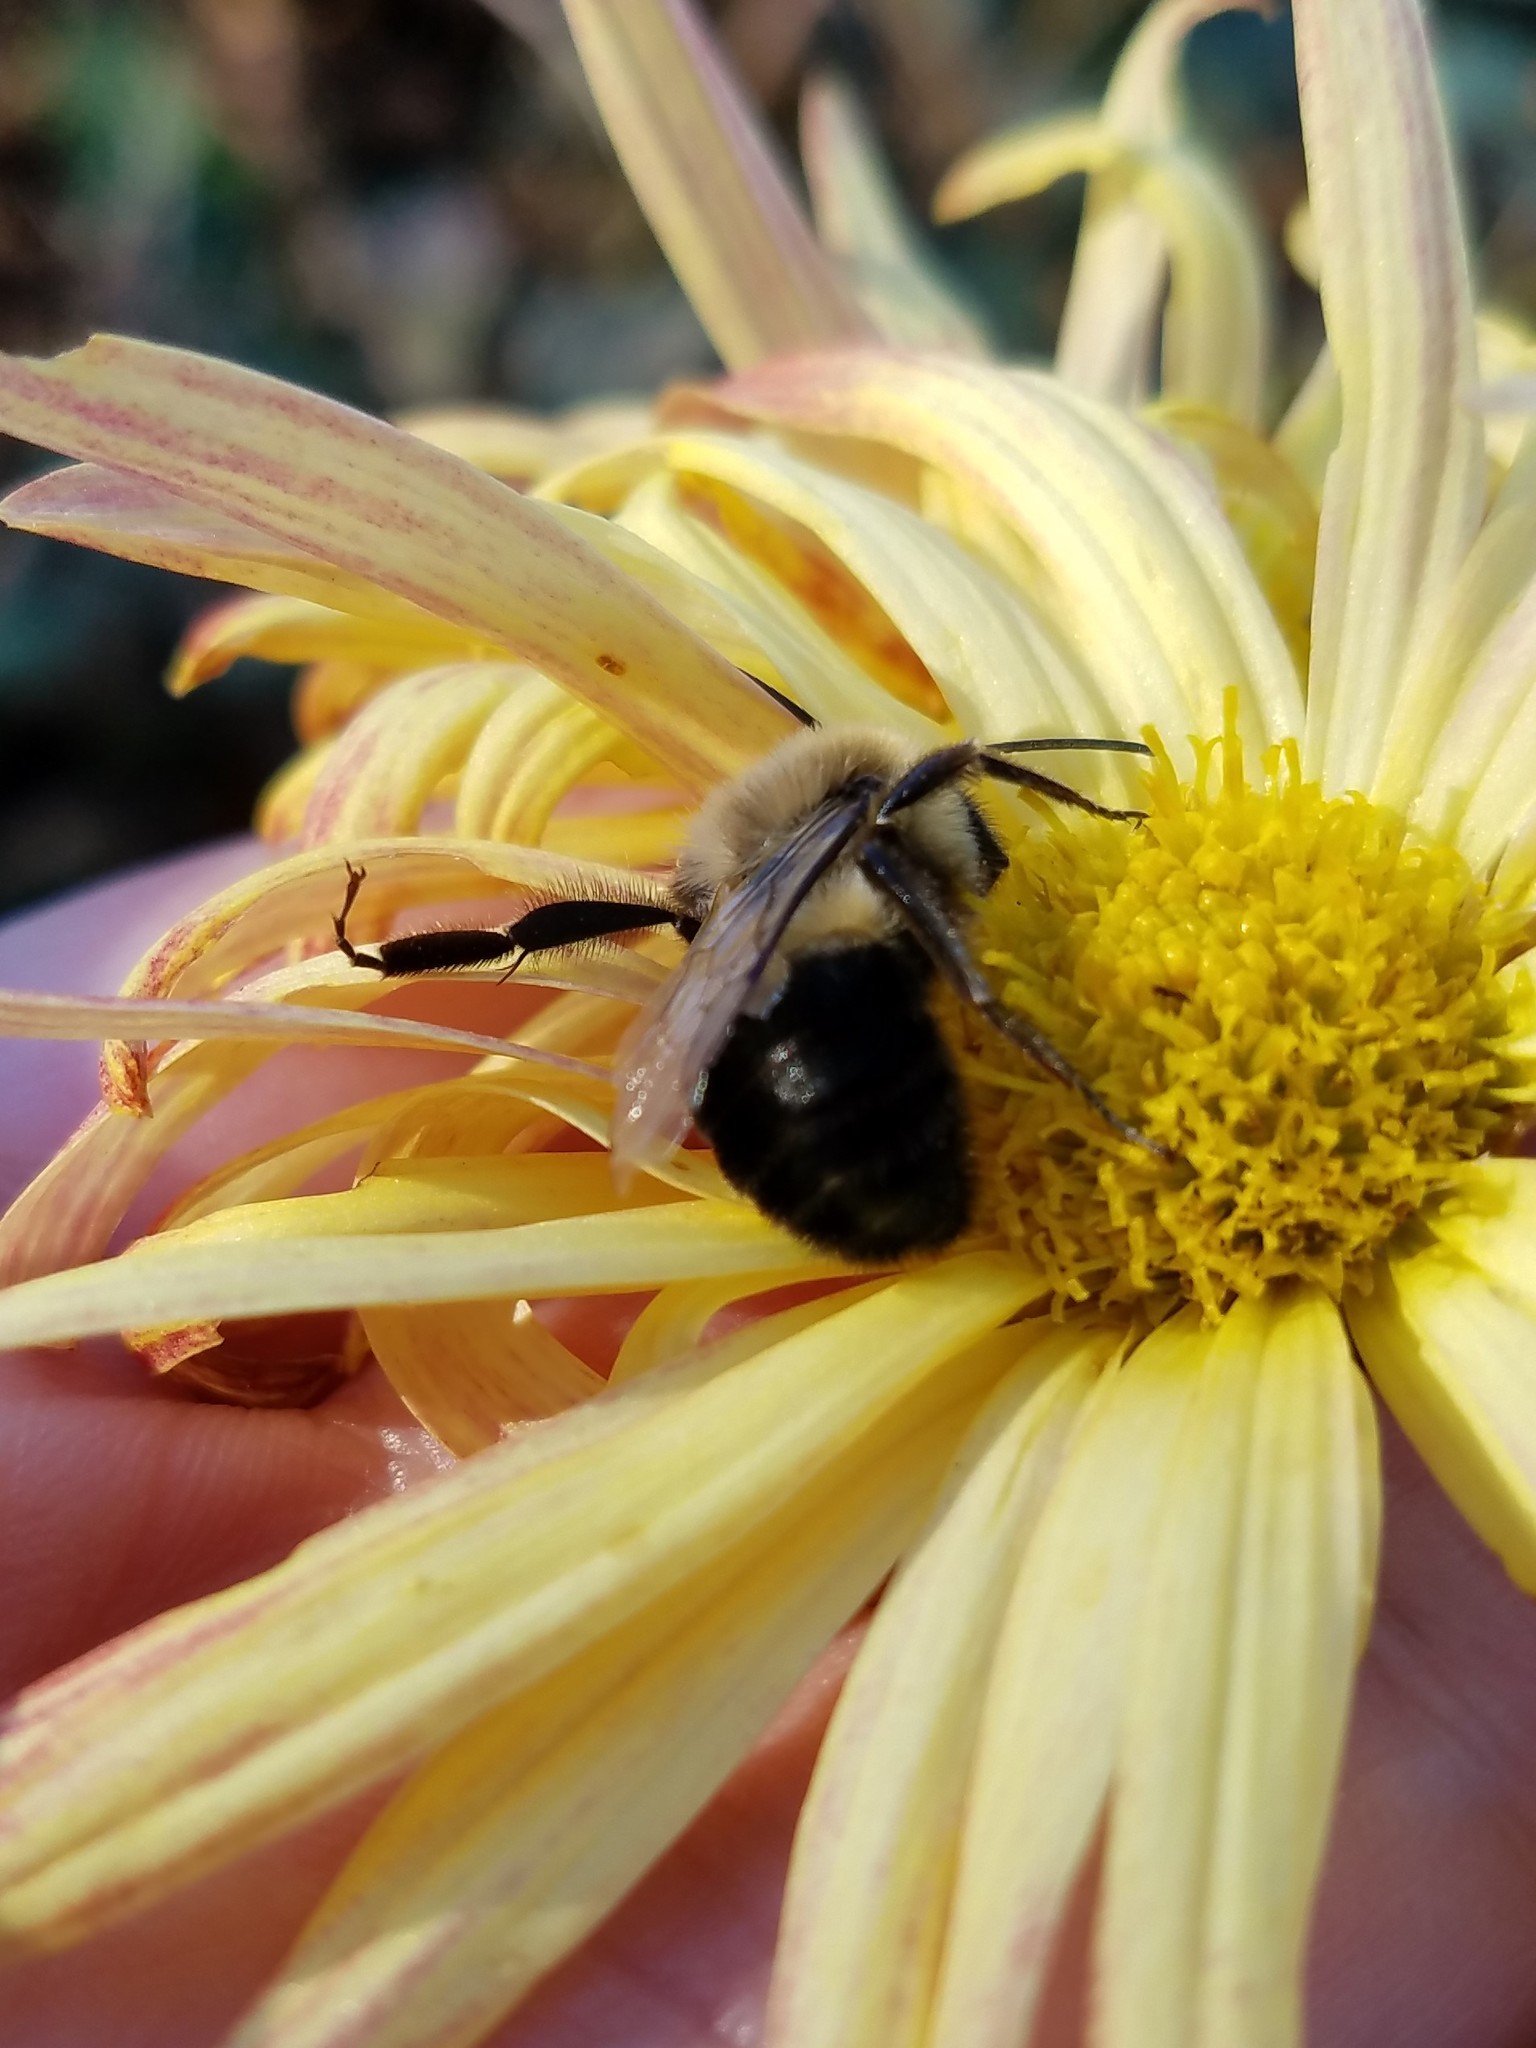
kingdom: Animalia
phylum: Arthropoda
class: Insecta
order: Hymenoptera
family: Apidae
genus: Bombus
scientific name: Bombus impatiens
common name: Common eastern bumble bee
